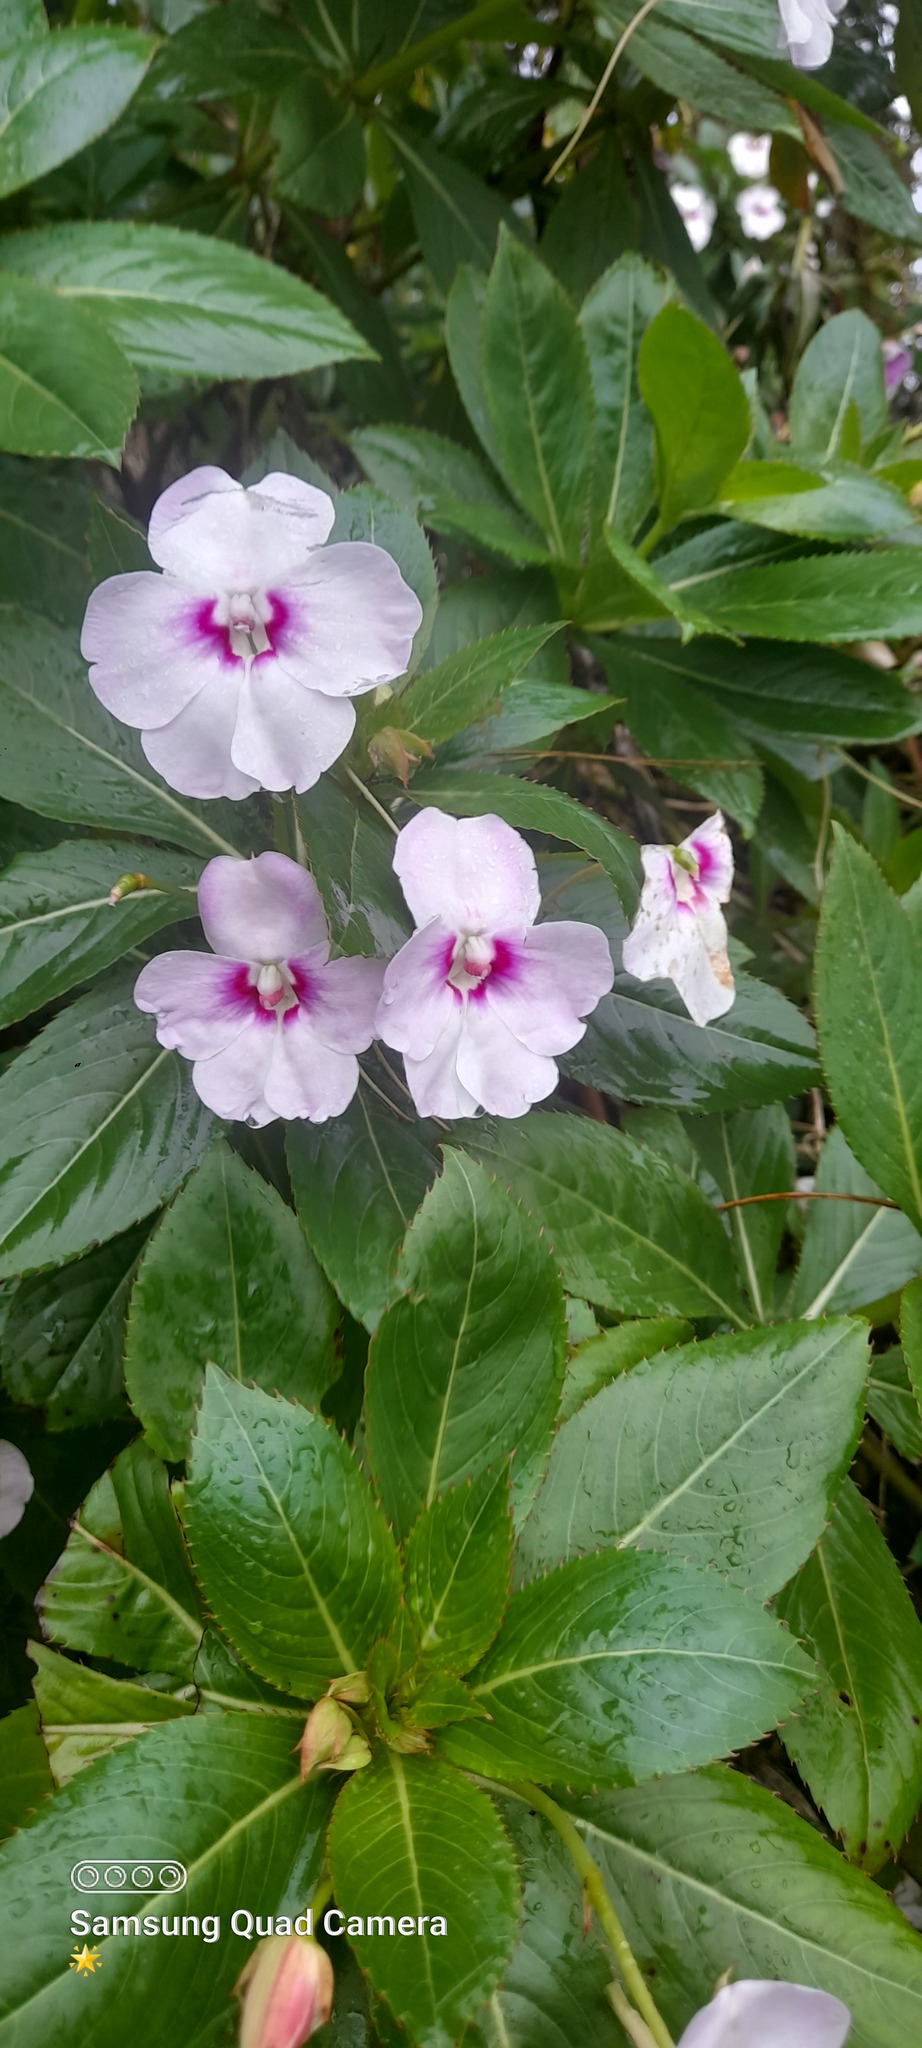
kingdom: Plantae
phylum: Tracheophyta
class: Magnoliopsida
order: Ericales
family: Balsaminaceae
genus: Impatiens
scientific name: Impatiens sodenii
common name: Oliver's touch-me-not
